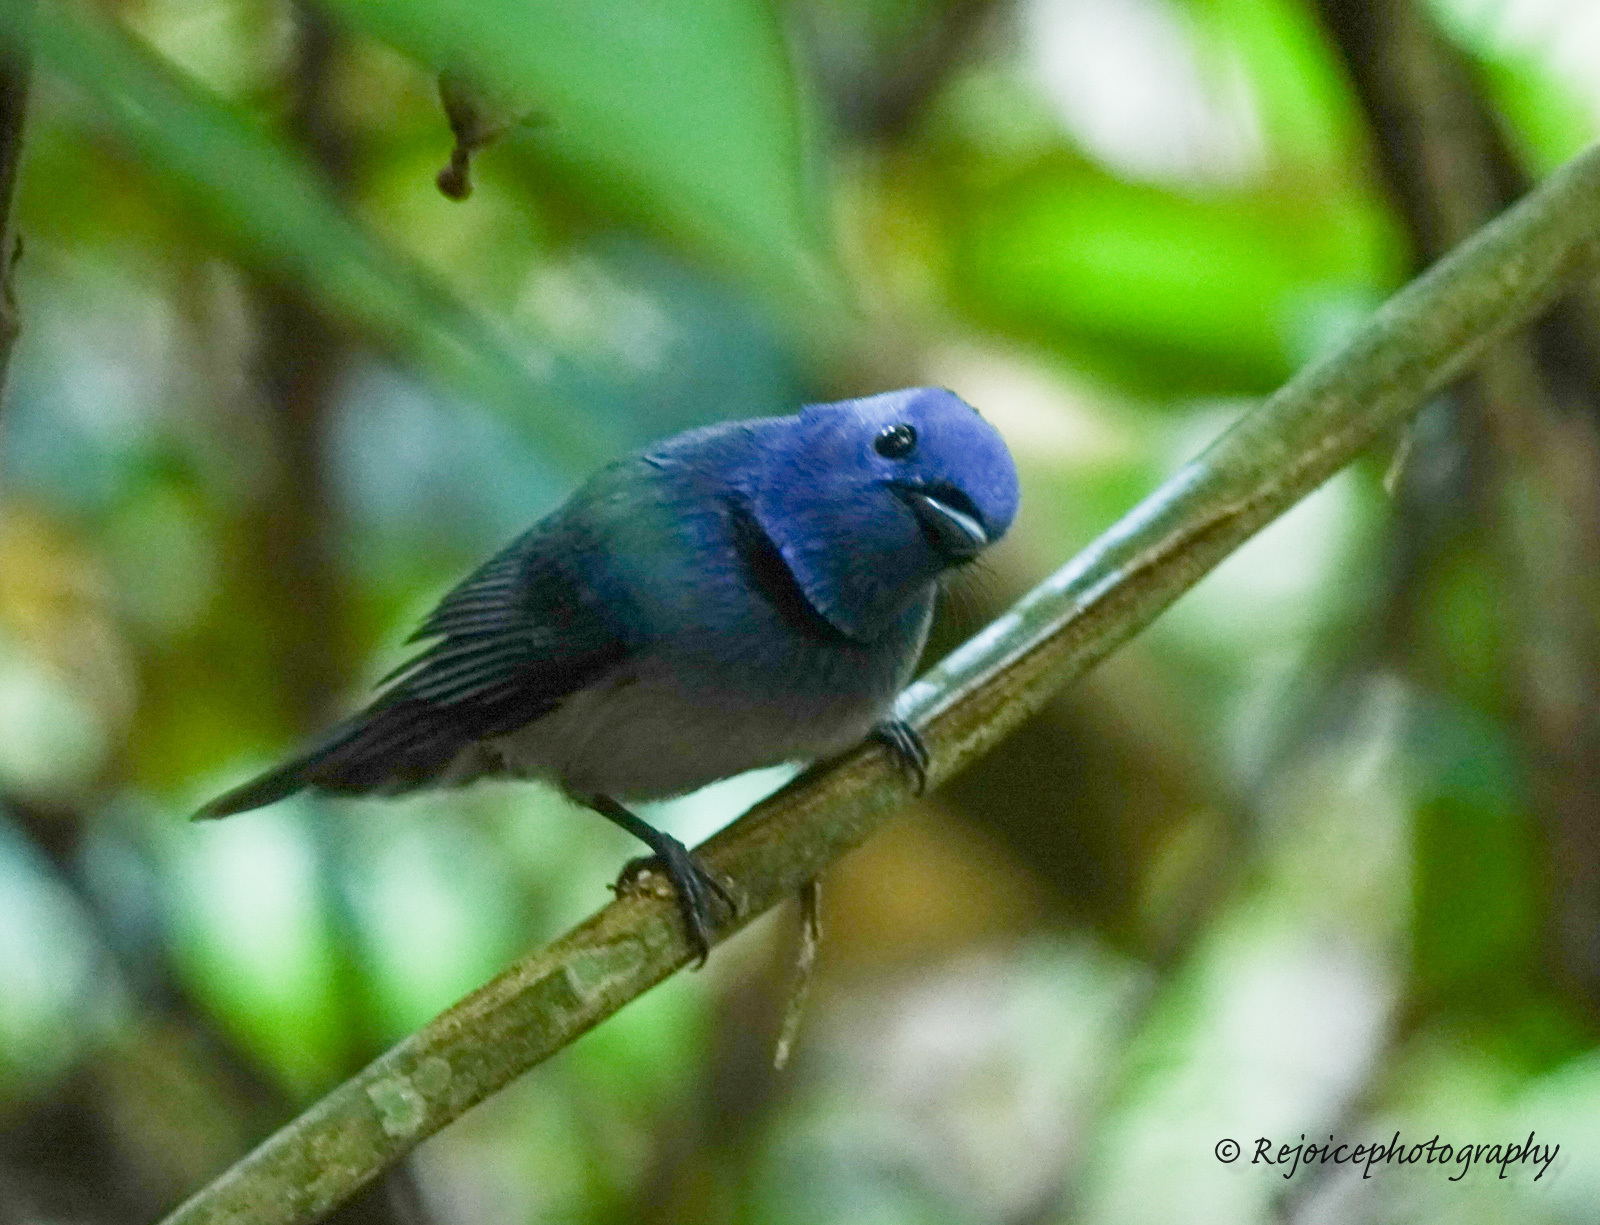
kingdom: Animalia
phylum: Chordata
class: Aves
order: Passeriformes
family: Monarchidae
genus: Hypothymis
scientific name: Hypothymis azurea
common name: Black-naped monarch
